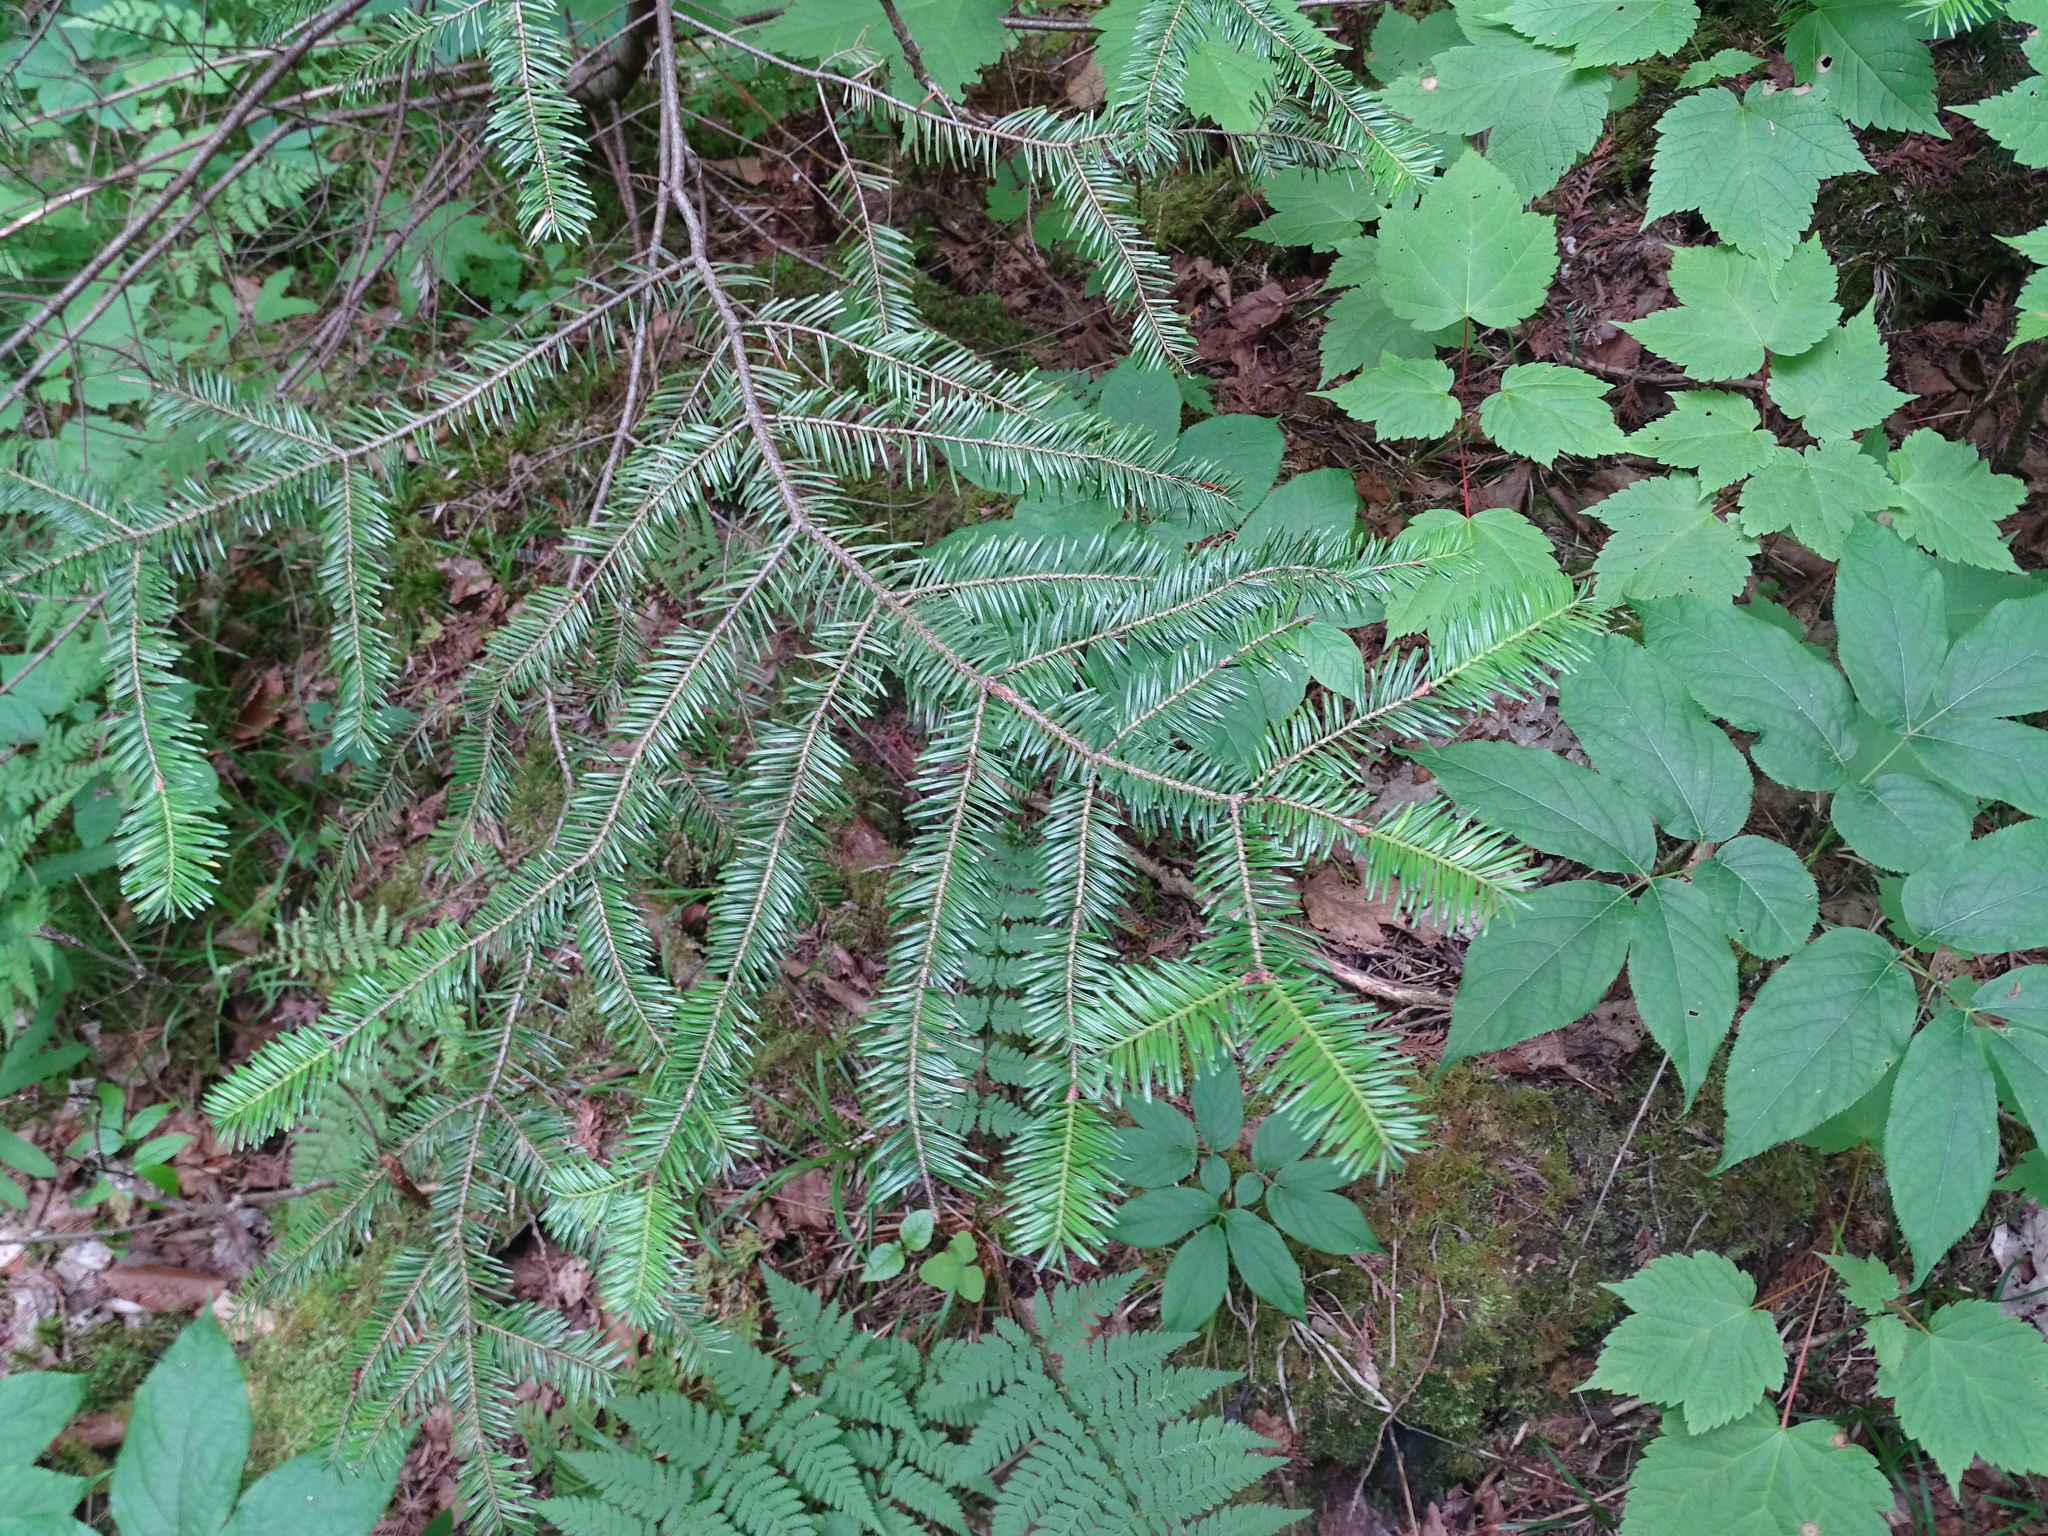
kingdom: Plantae
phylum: Tracheophyta
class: Pinopsida
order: Pinales
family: Pinaceae
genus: Abies
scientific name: Abies balsamea
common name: Balsam fir
